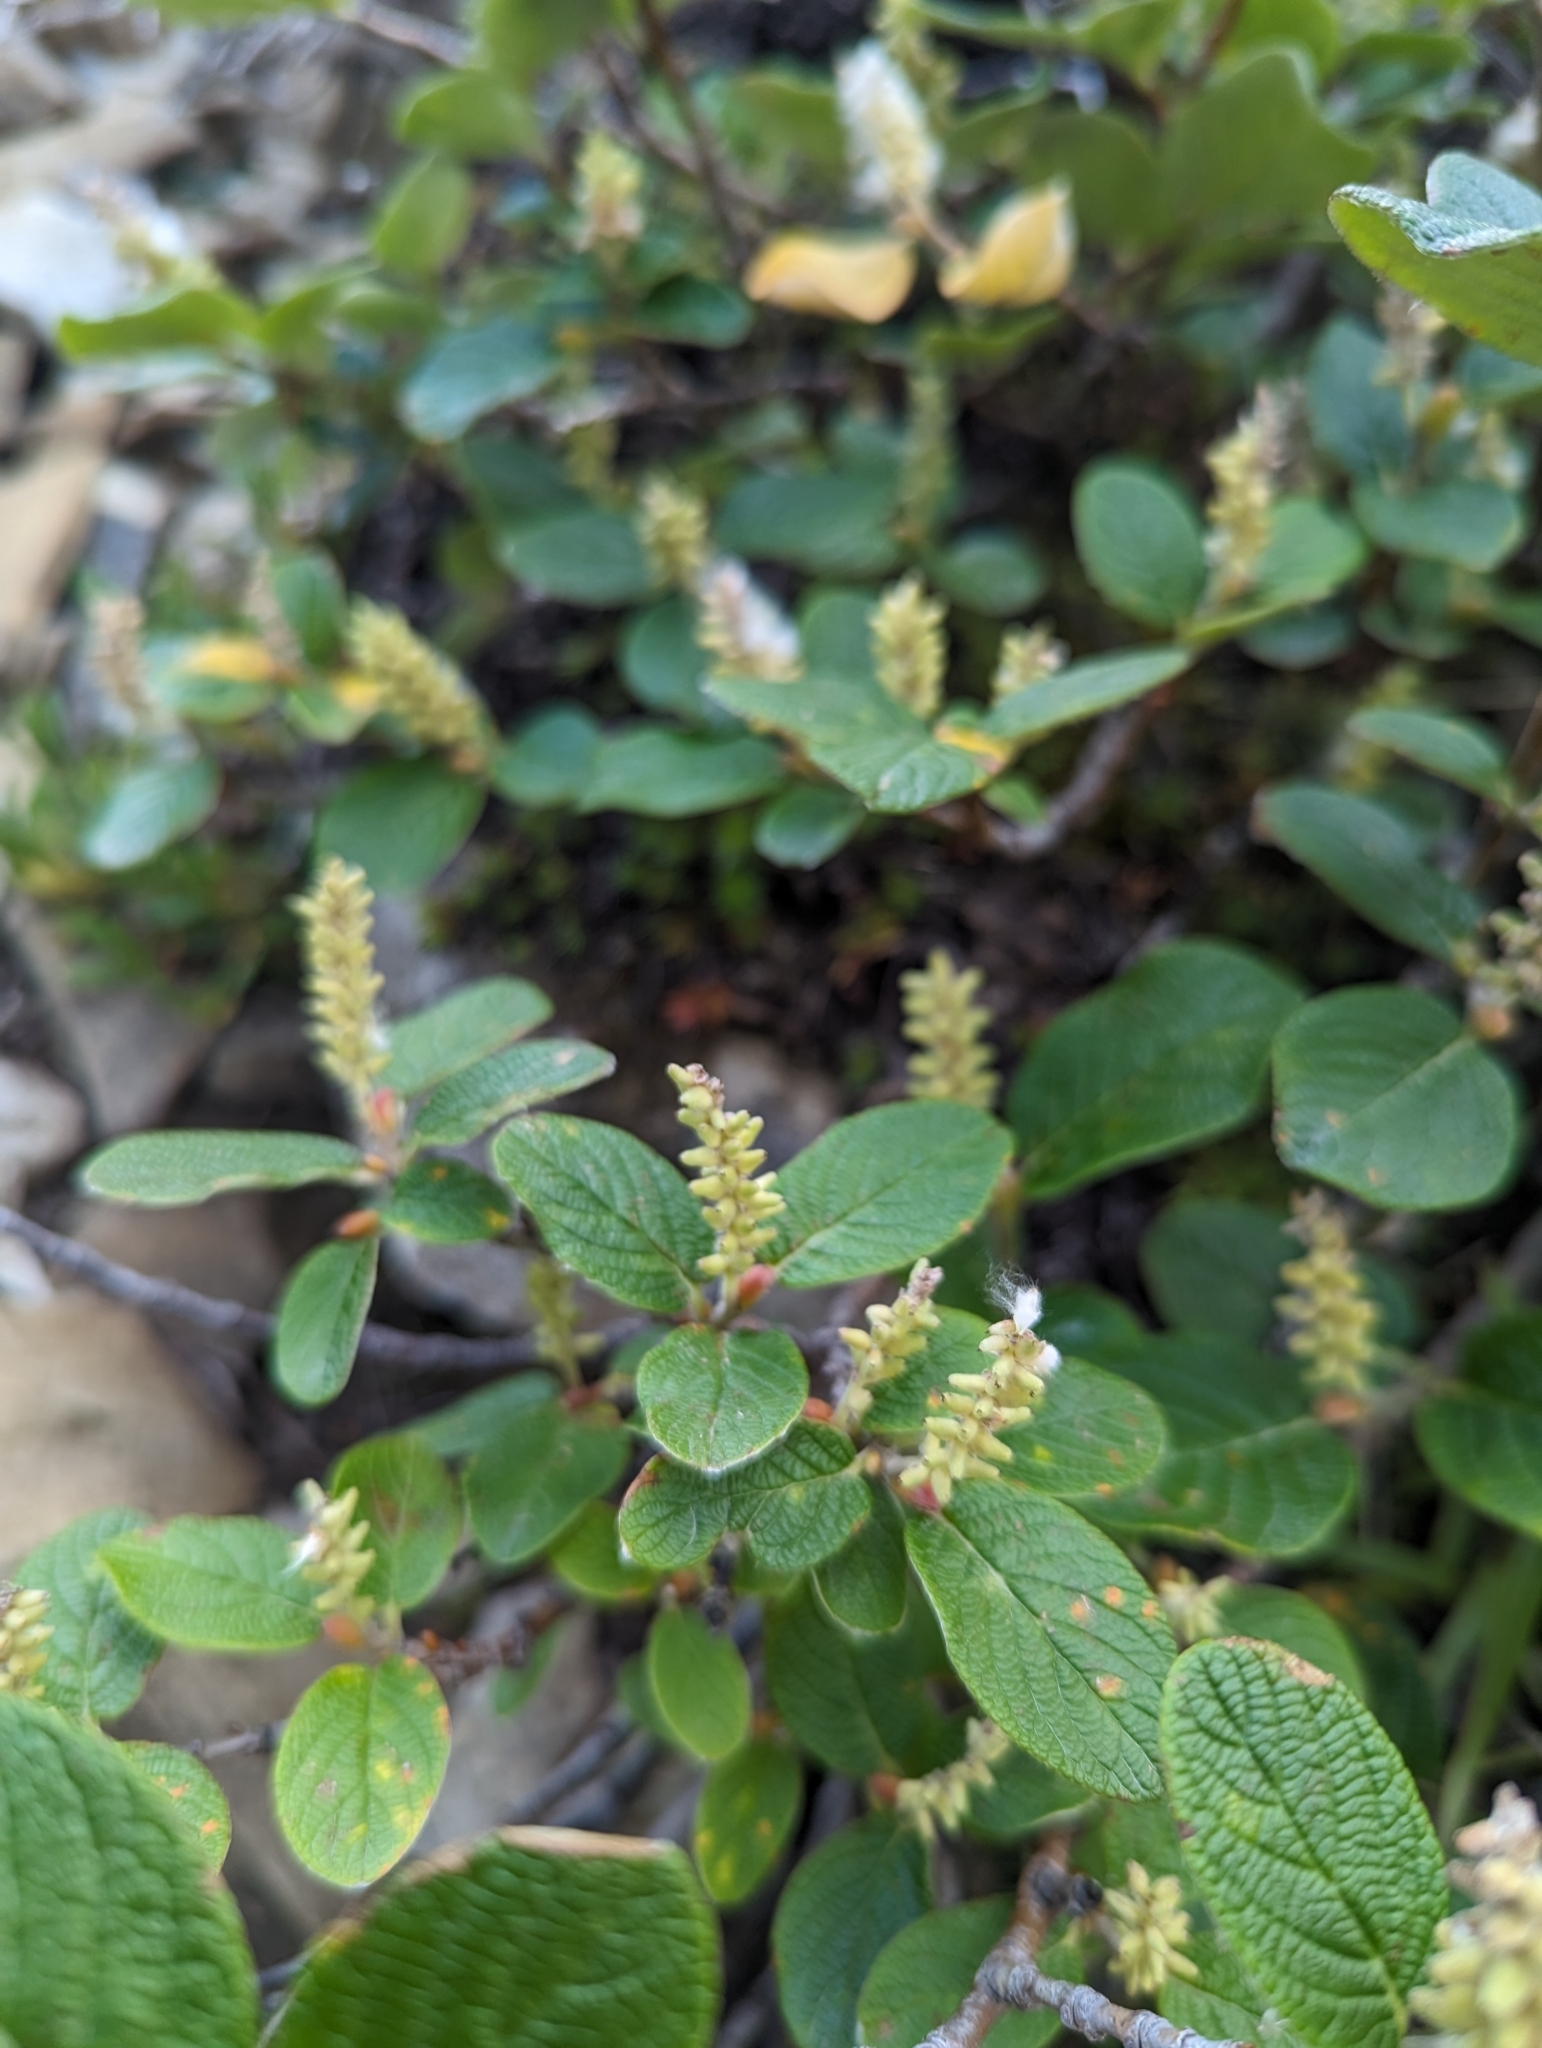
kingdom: Plantae
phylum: Tracheophyta
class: Magnoliopsida
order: Malpighiales
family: Salicaceae
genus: Salix
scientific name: Salix vestita
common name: Hairy willow
